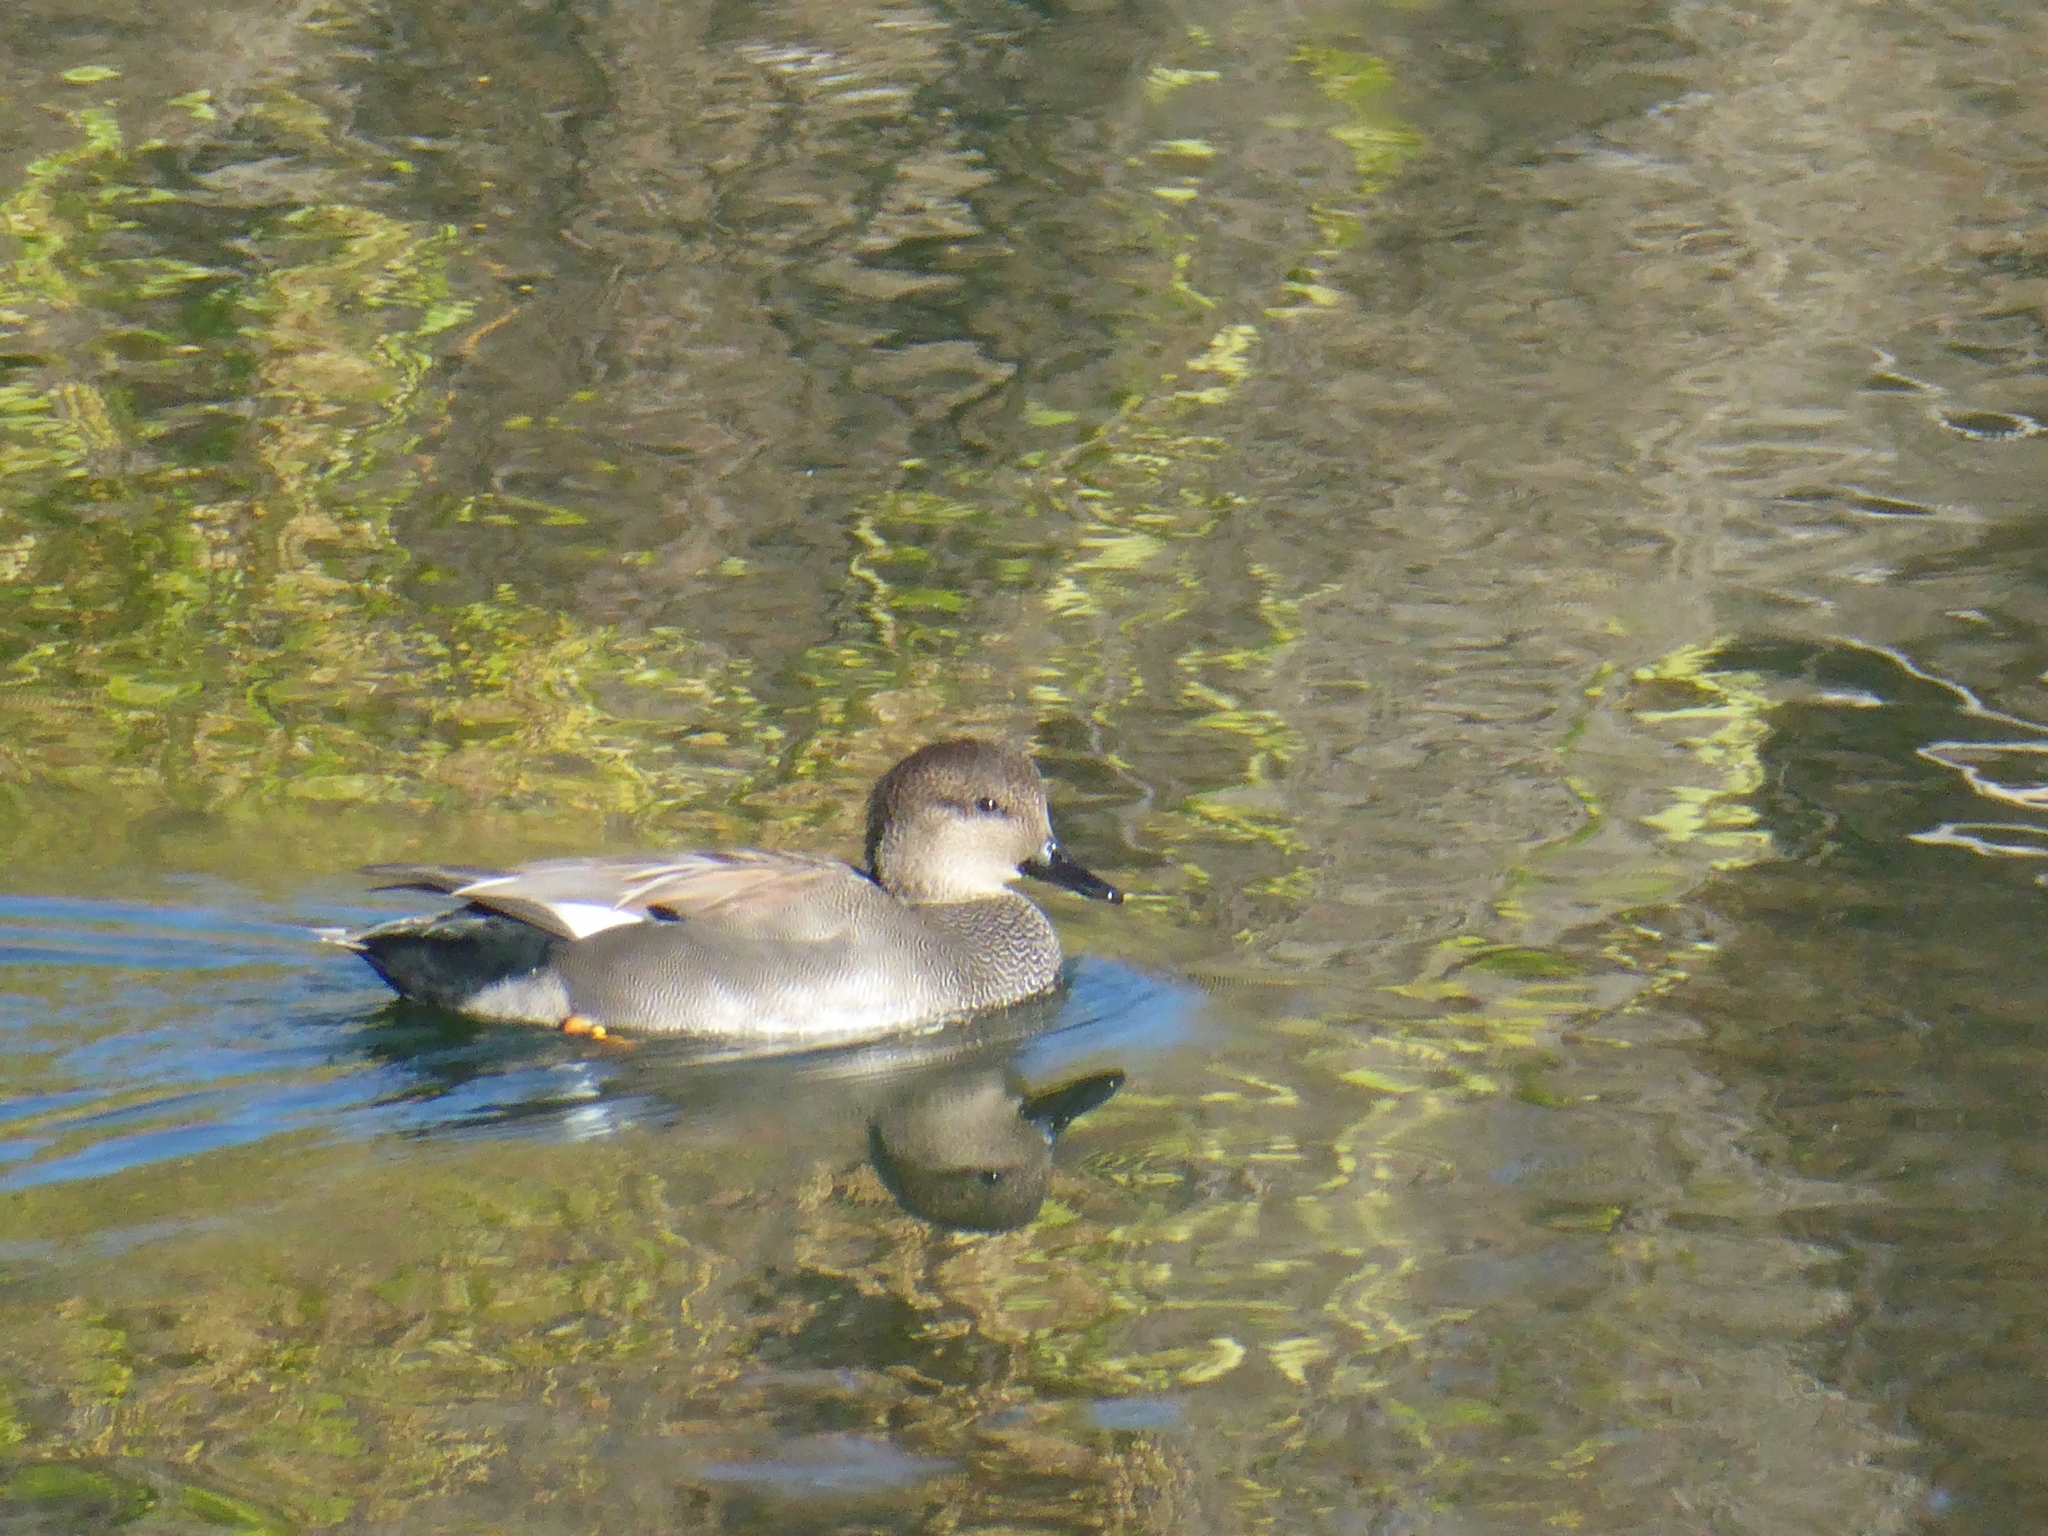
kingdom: Animalia
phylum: Chordata
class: Aves
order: Anseriformes
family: Anatidae
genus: Mareca
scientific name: Mareca strepera
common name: Gadwall
